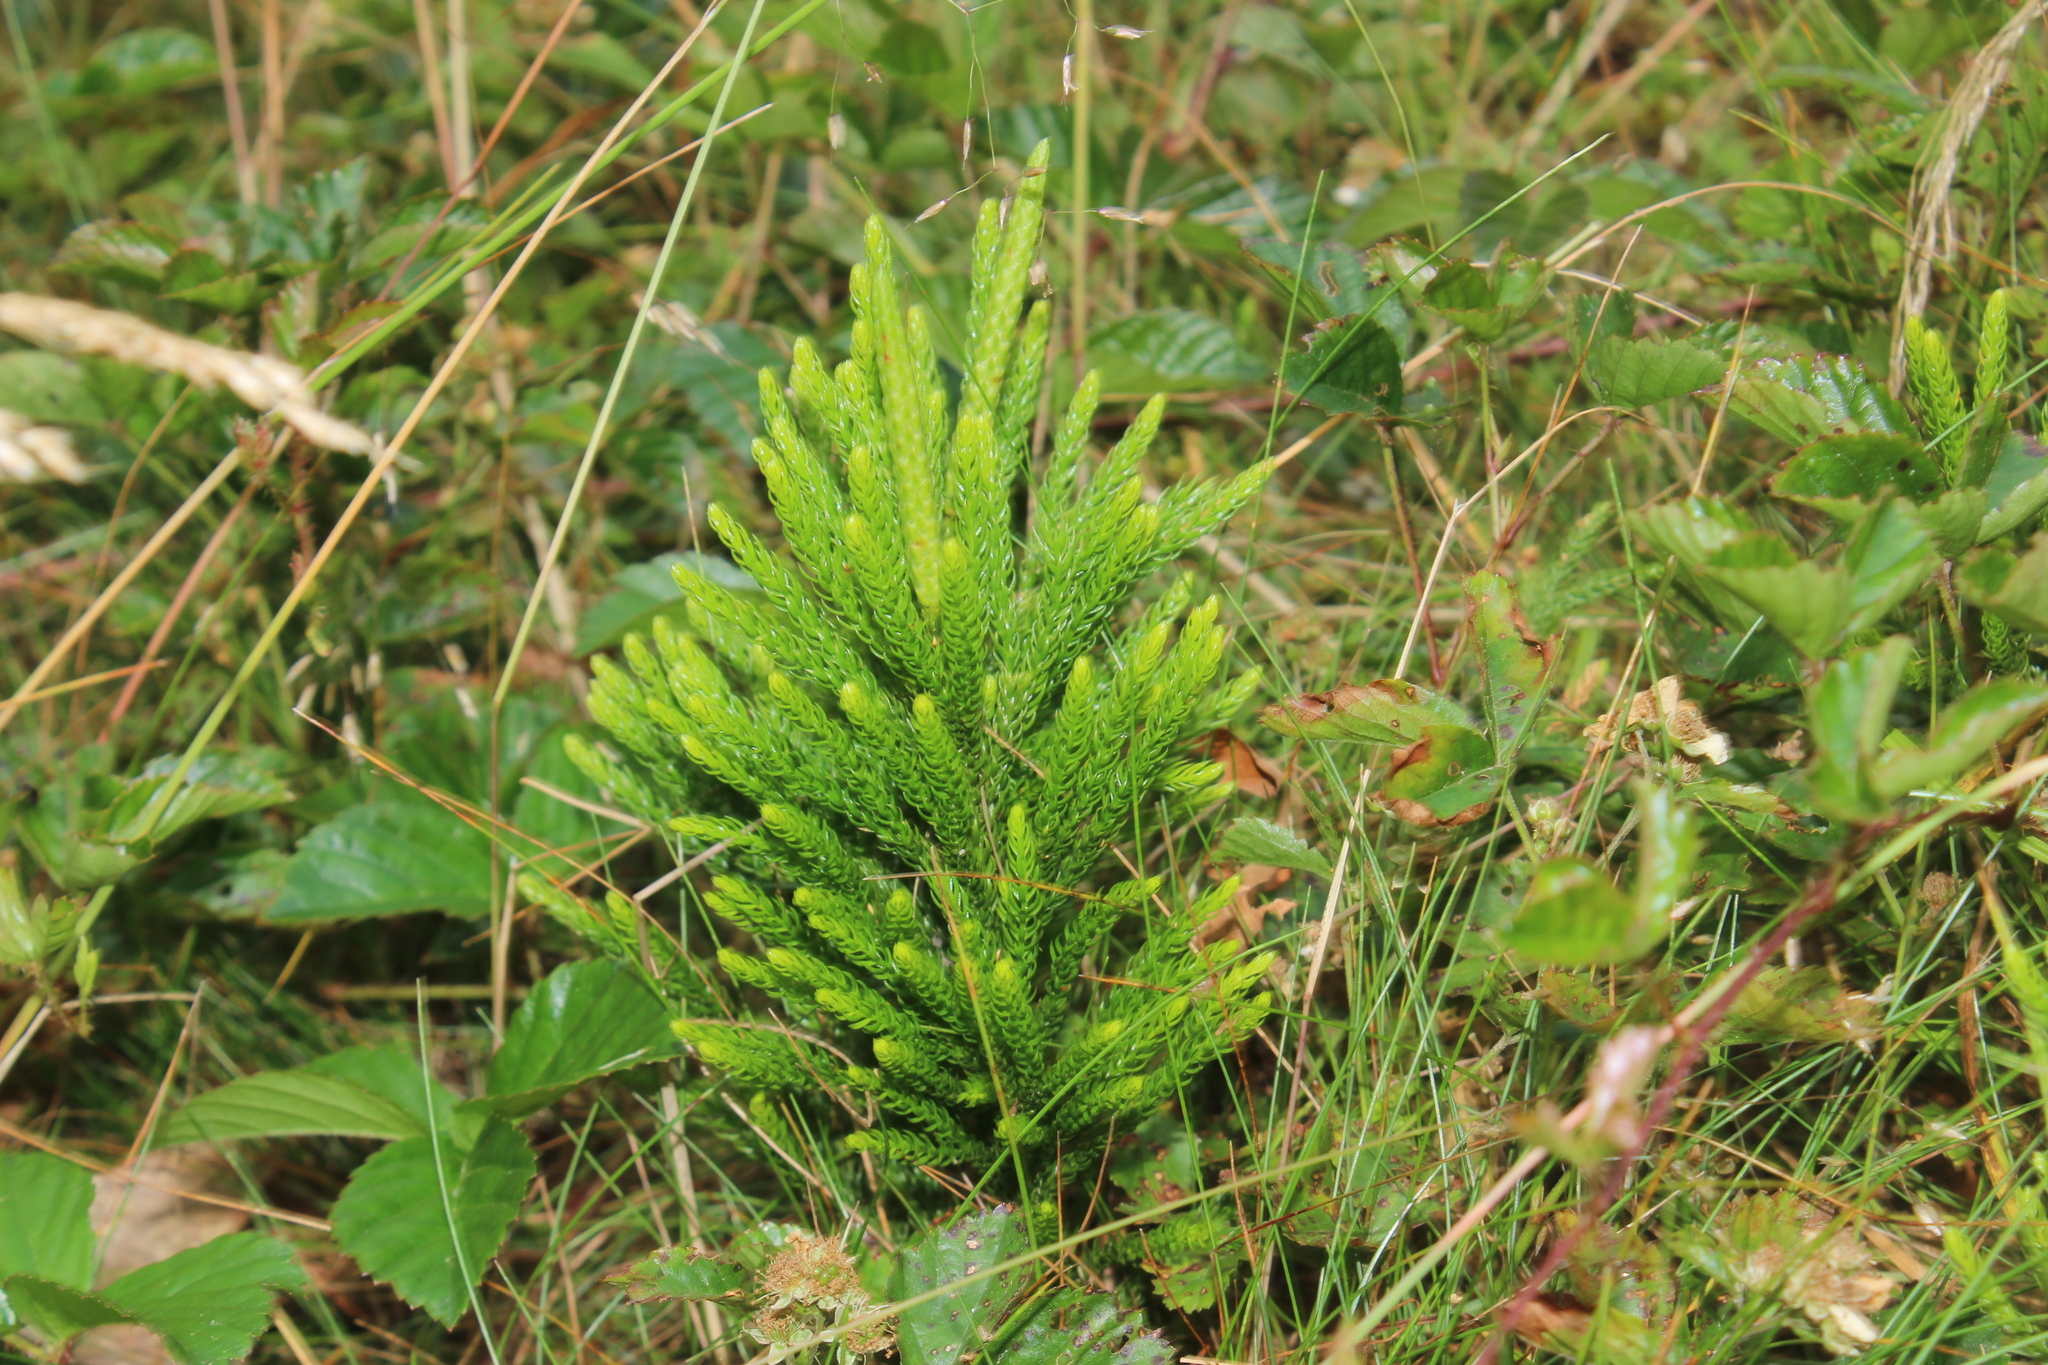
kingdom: Plantae
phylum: Tracheophyta
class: Lycopodiopsida
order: Lycopodiales
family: Lycopodiaceae
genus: Dendrolycopodium
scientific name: Dendrolycopodium hickeyi
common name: Hickey's clubmoss
